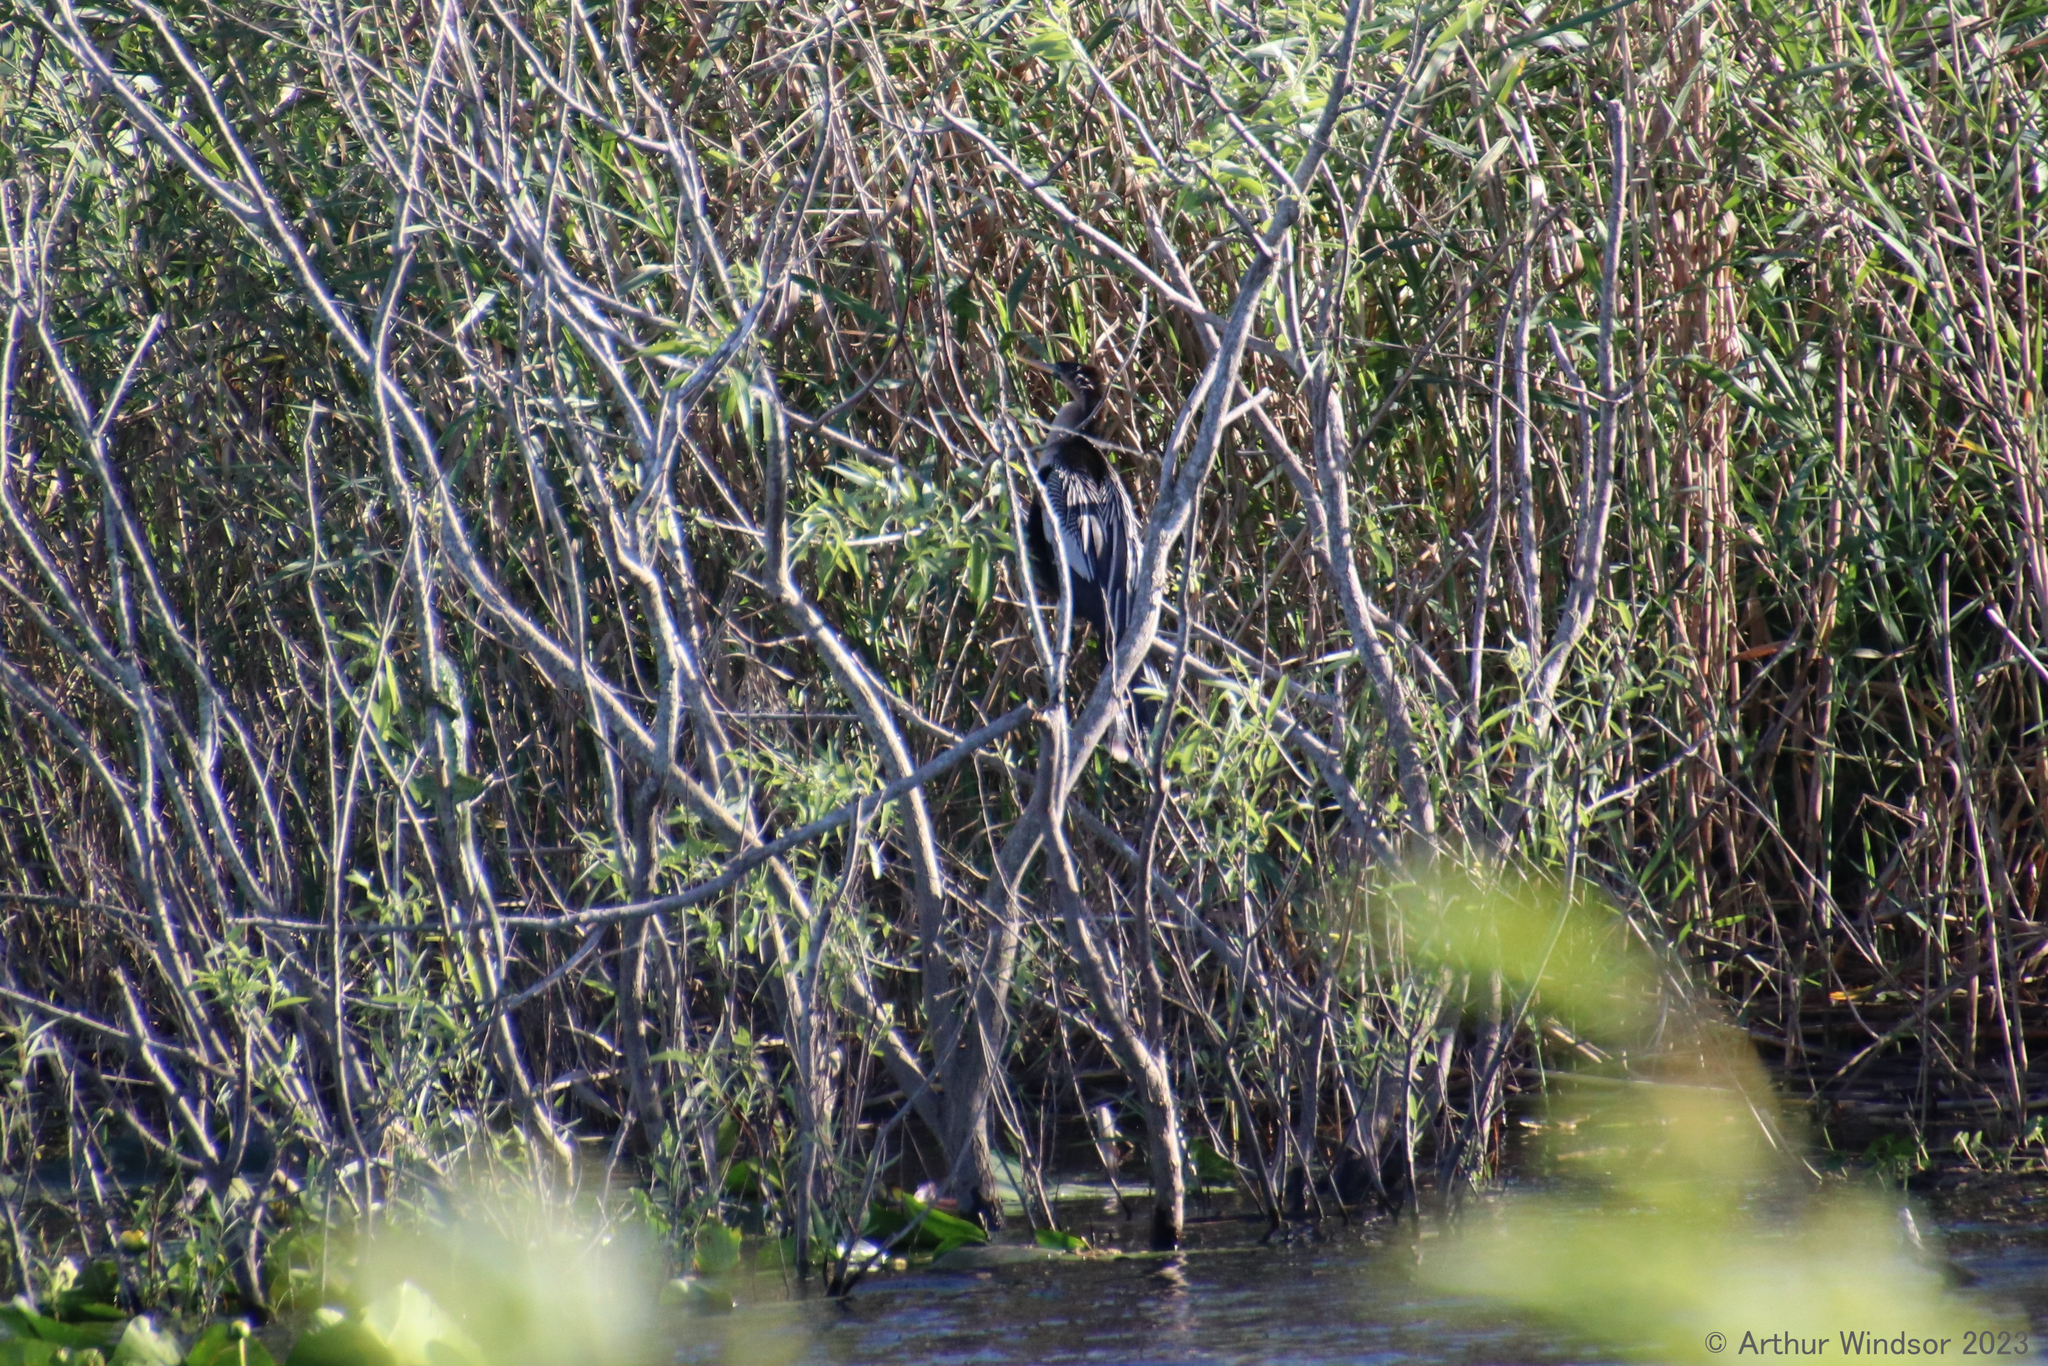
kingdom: Animalia
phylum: Chordata
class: Aves
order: Suliformes
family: Anhingidae
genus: Anhinga
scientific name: Anhinga anhinga
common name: Anhinga
